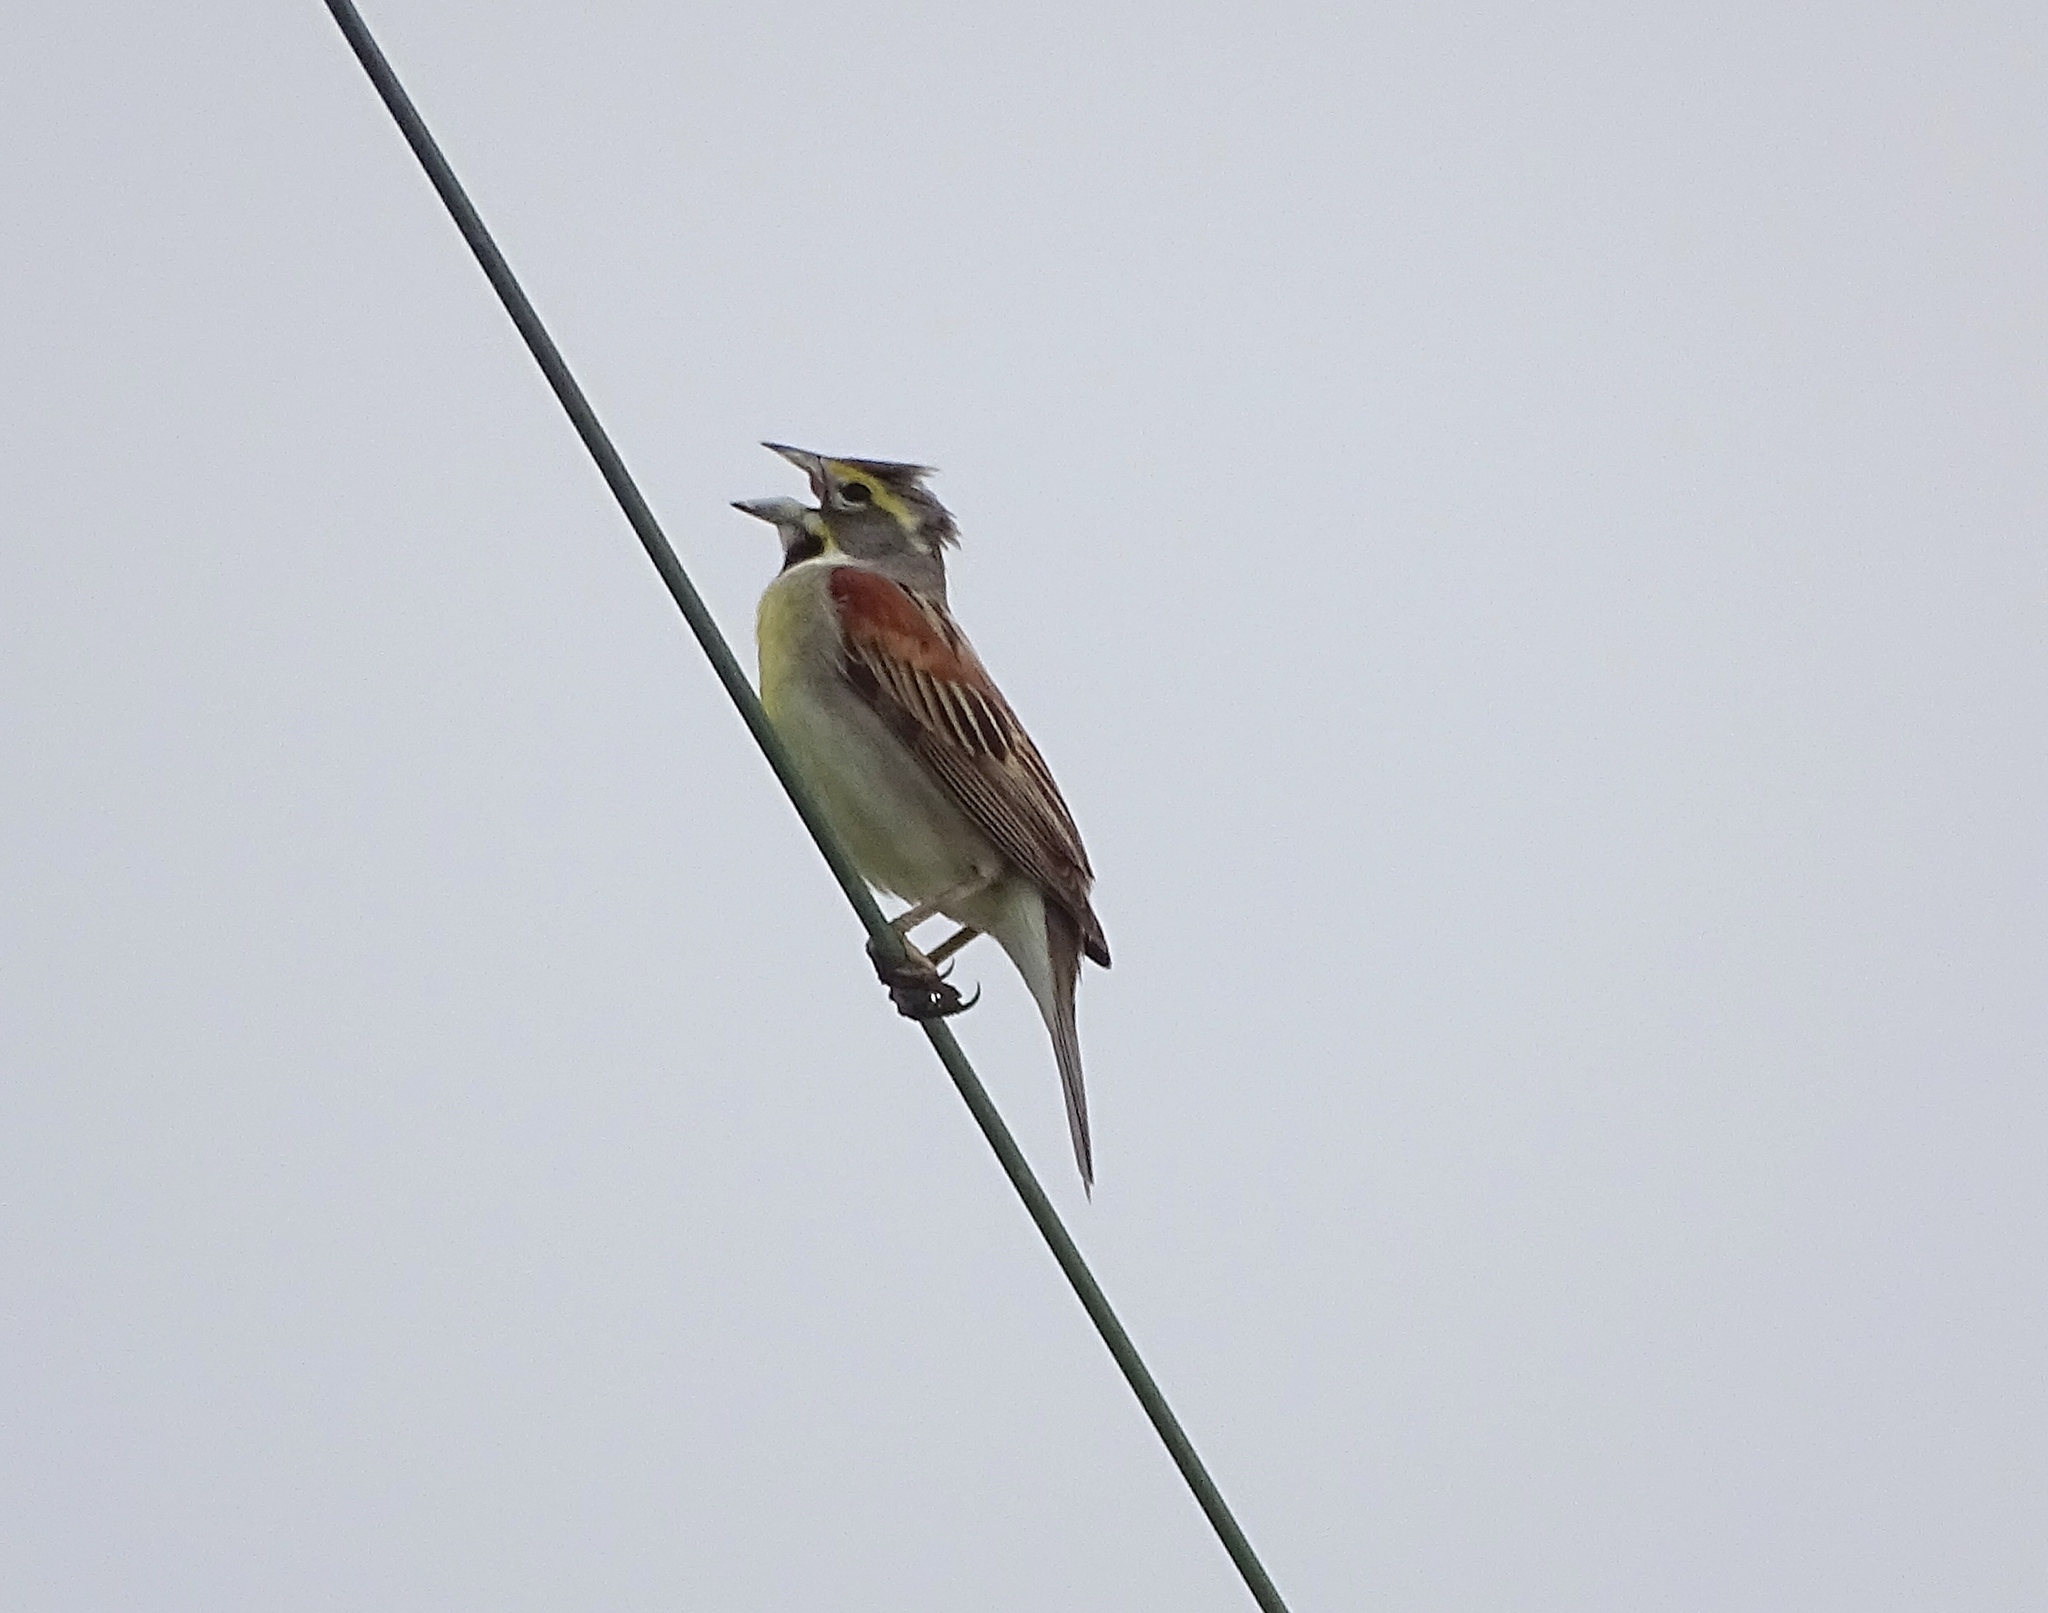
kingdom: Animalia
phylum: Chordata
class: Aves
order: Passeriformes
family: Cardinalidae
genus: Spiza
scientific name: Spiza americana
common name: Dickcissel
